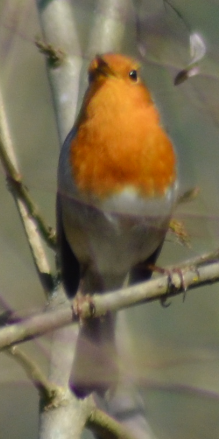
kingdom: Animalia
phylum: Chordata
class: Aves
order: Passeriformes
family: Muscicapidae
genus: Erithacus
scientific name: Erithacus rubecula
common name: European robin
